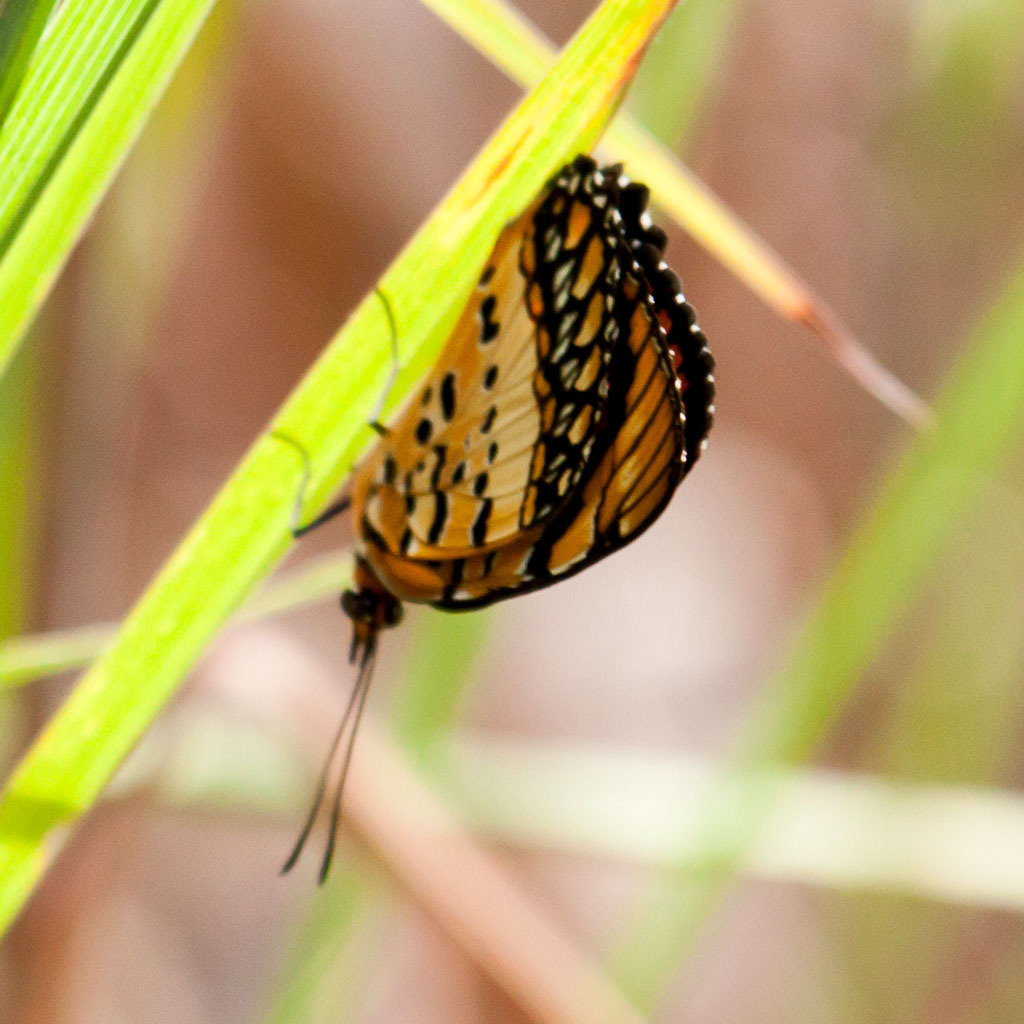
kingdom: Animalia
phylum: Arthropoda
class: Insecta
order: Lepidoptera
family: Nymphalidae
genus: Byblia
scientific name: Byblia acheloia
